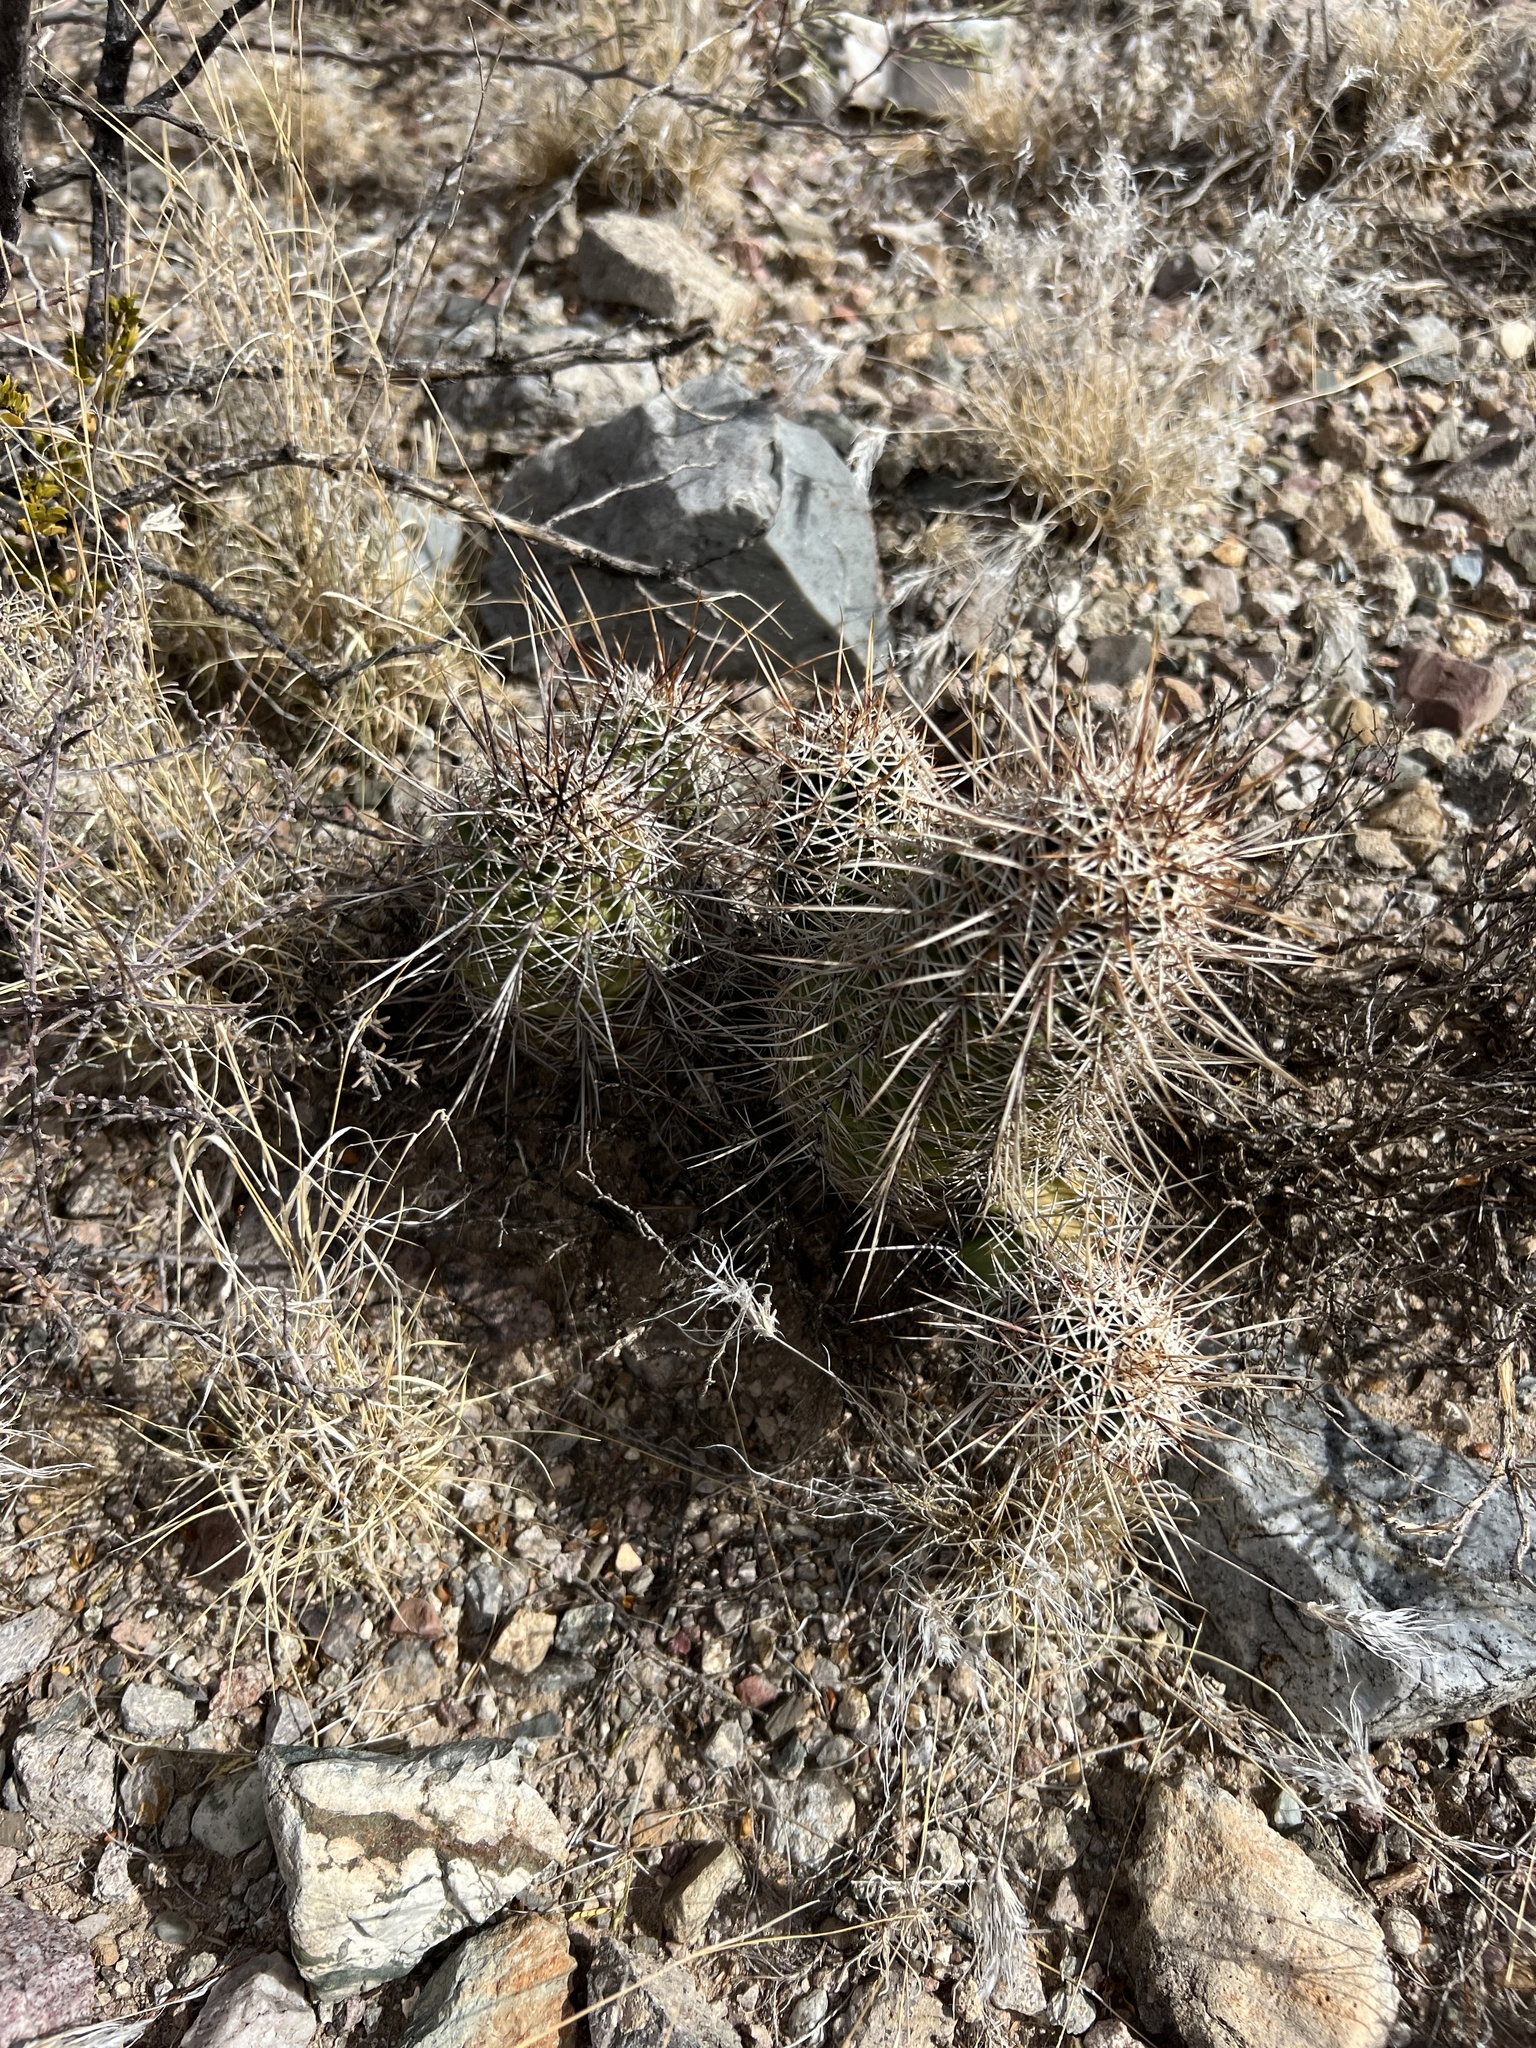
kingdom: Plantae
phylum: Tracheophyta
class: Magnoliopsida
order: Caryophyllales
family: Cactaceae
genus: Echinocereus
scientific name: Echinocereus fasciculatus
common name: Bundle hedgehog
